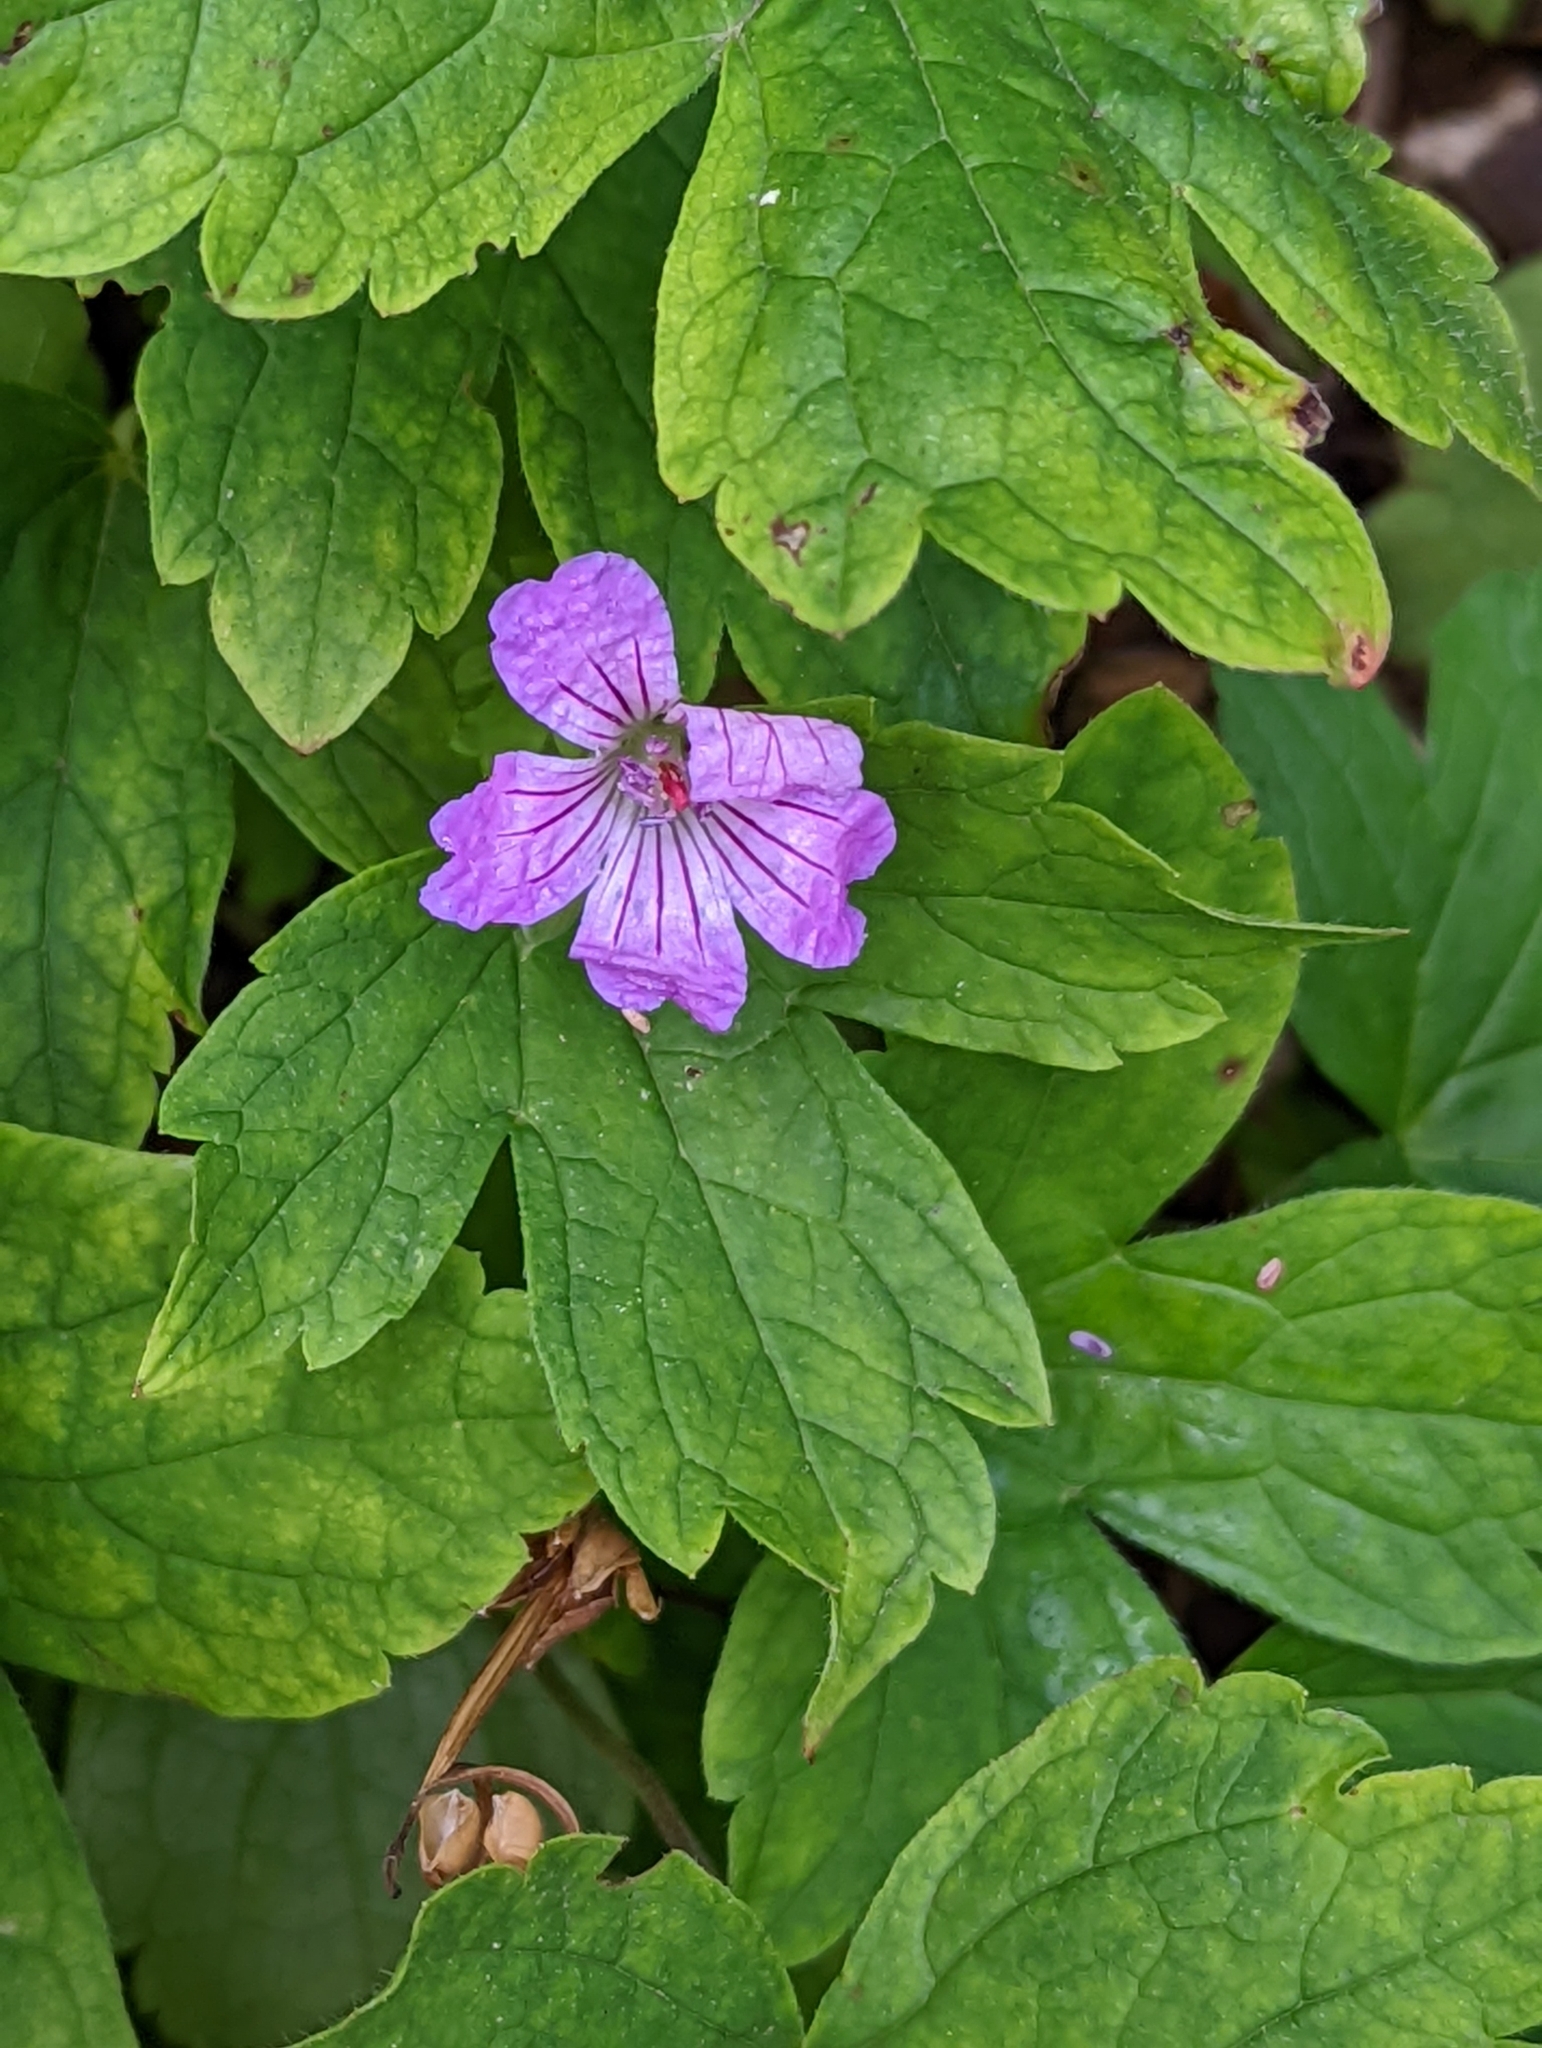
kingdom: Plantae
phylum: Tracheophyta
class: Magnoliopsida
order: Geraniales
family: Geraniaceae
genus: Geranium
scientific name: Geranium nodosum
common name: Knotted crane's-bill
